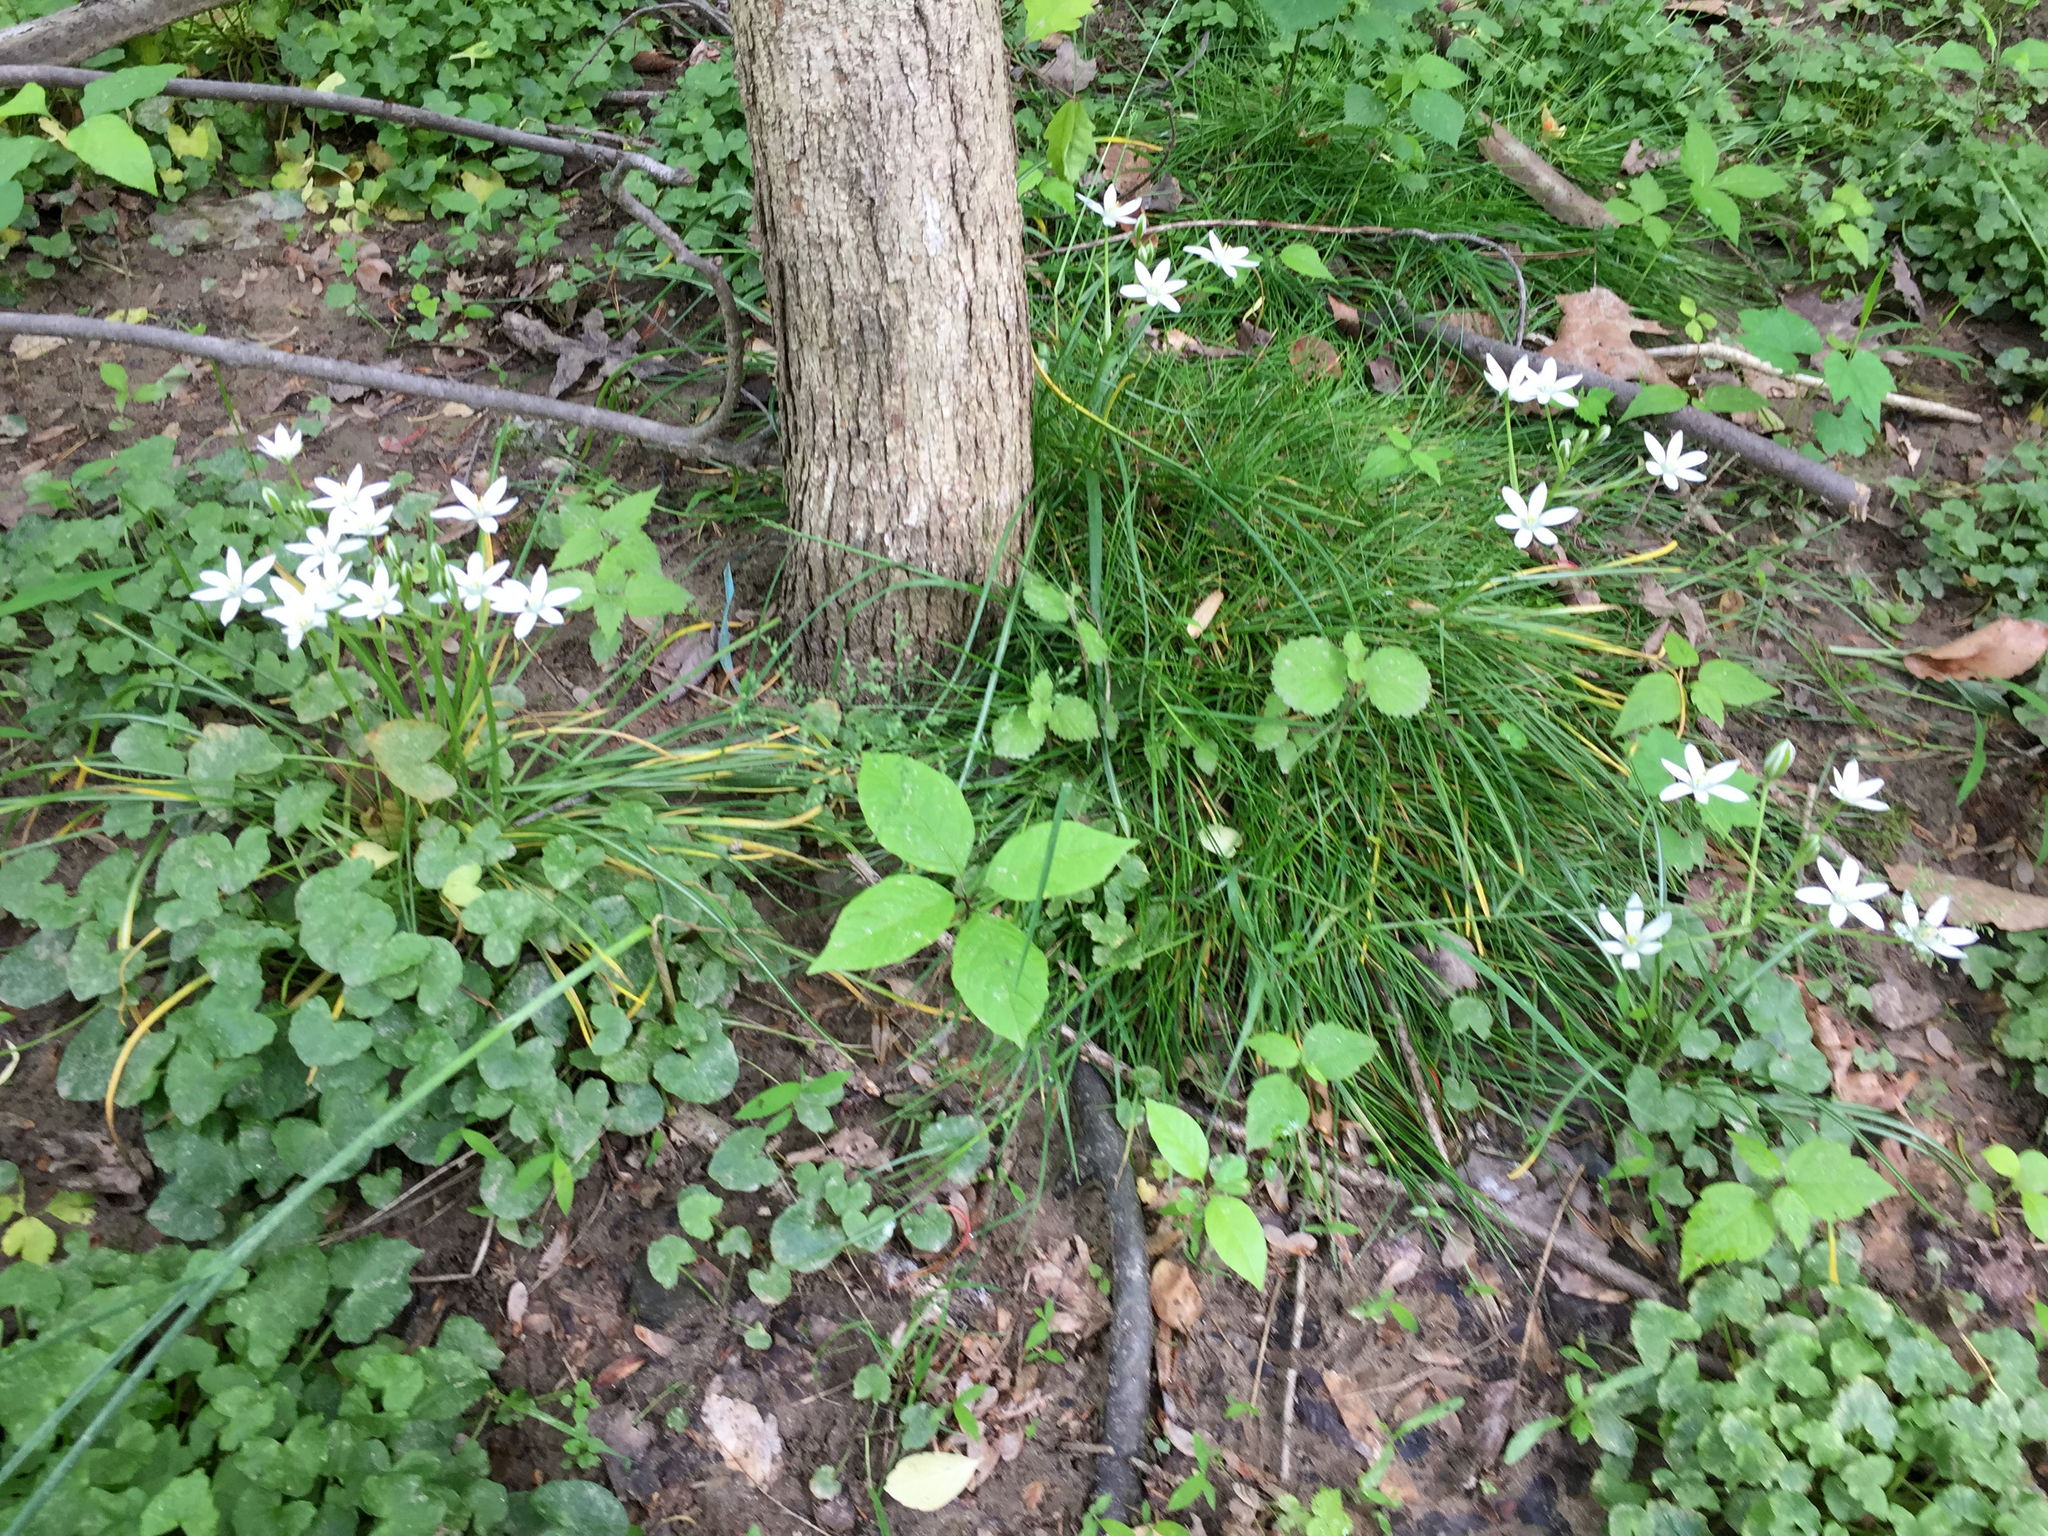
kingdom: Plantae
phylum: Tracheophyta
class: Liliopsida
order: Asparagales
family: Asparagaceae
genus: Ornithogalum
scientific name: Ornithogalum umbellatum
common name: Garden star-of-bethlehem
